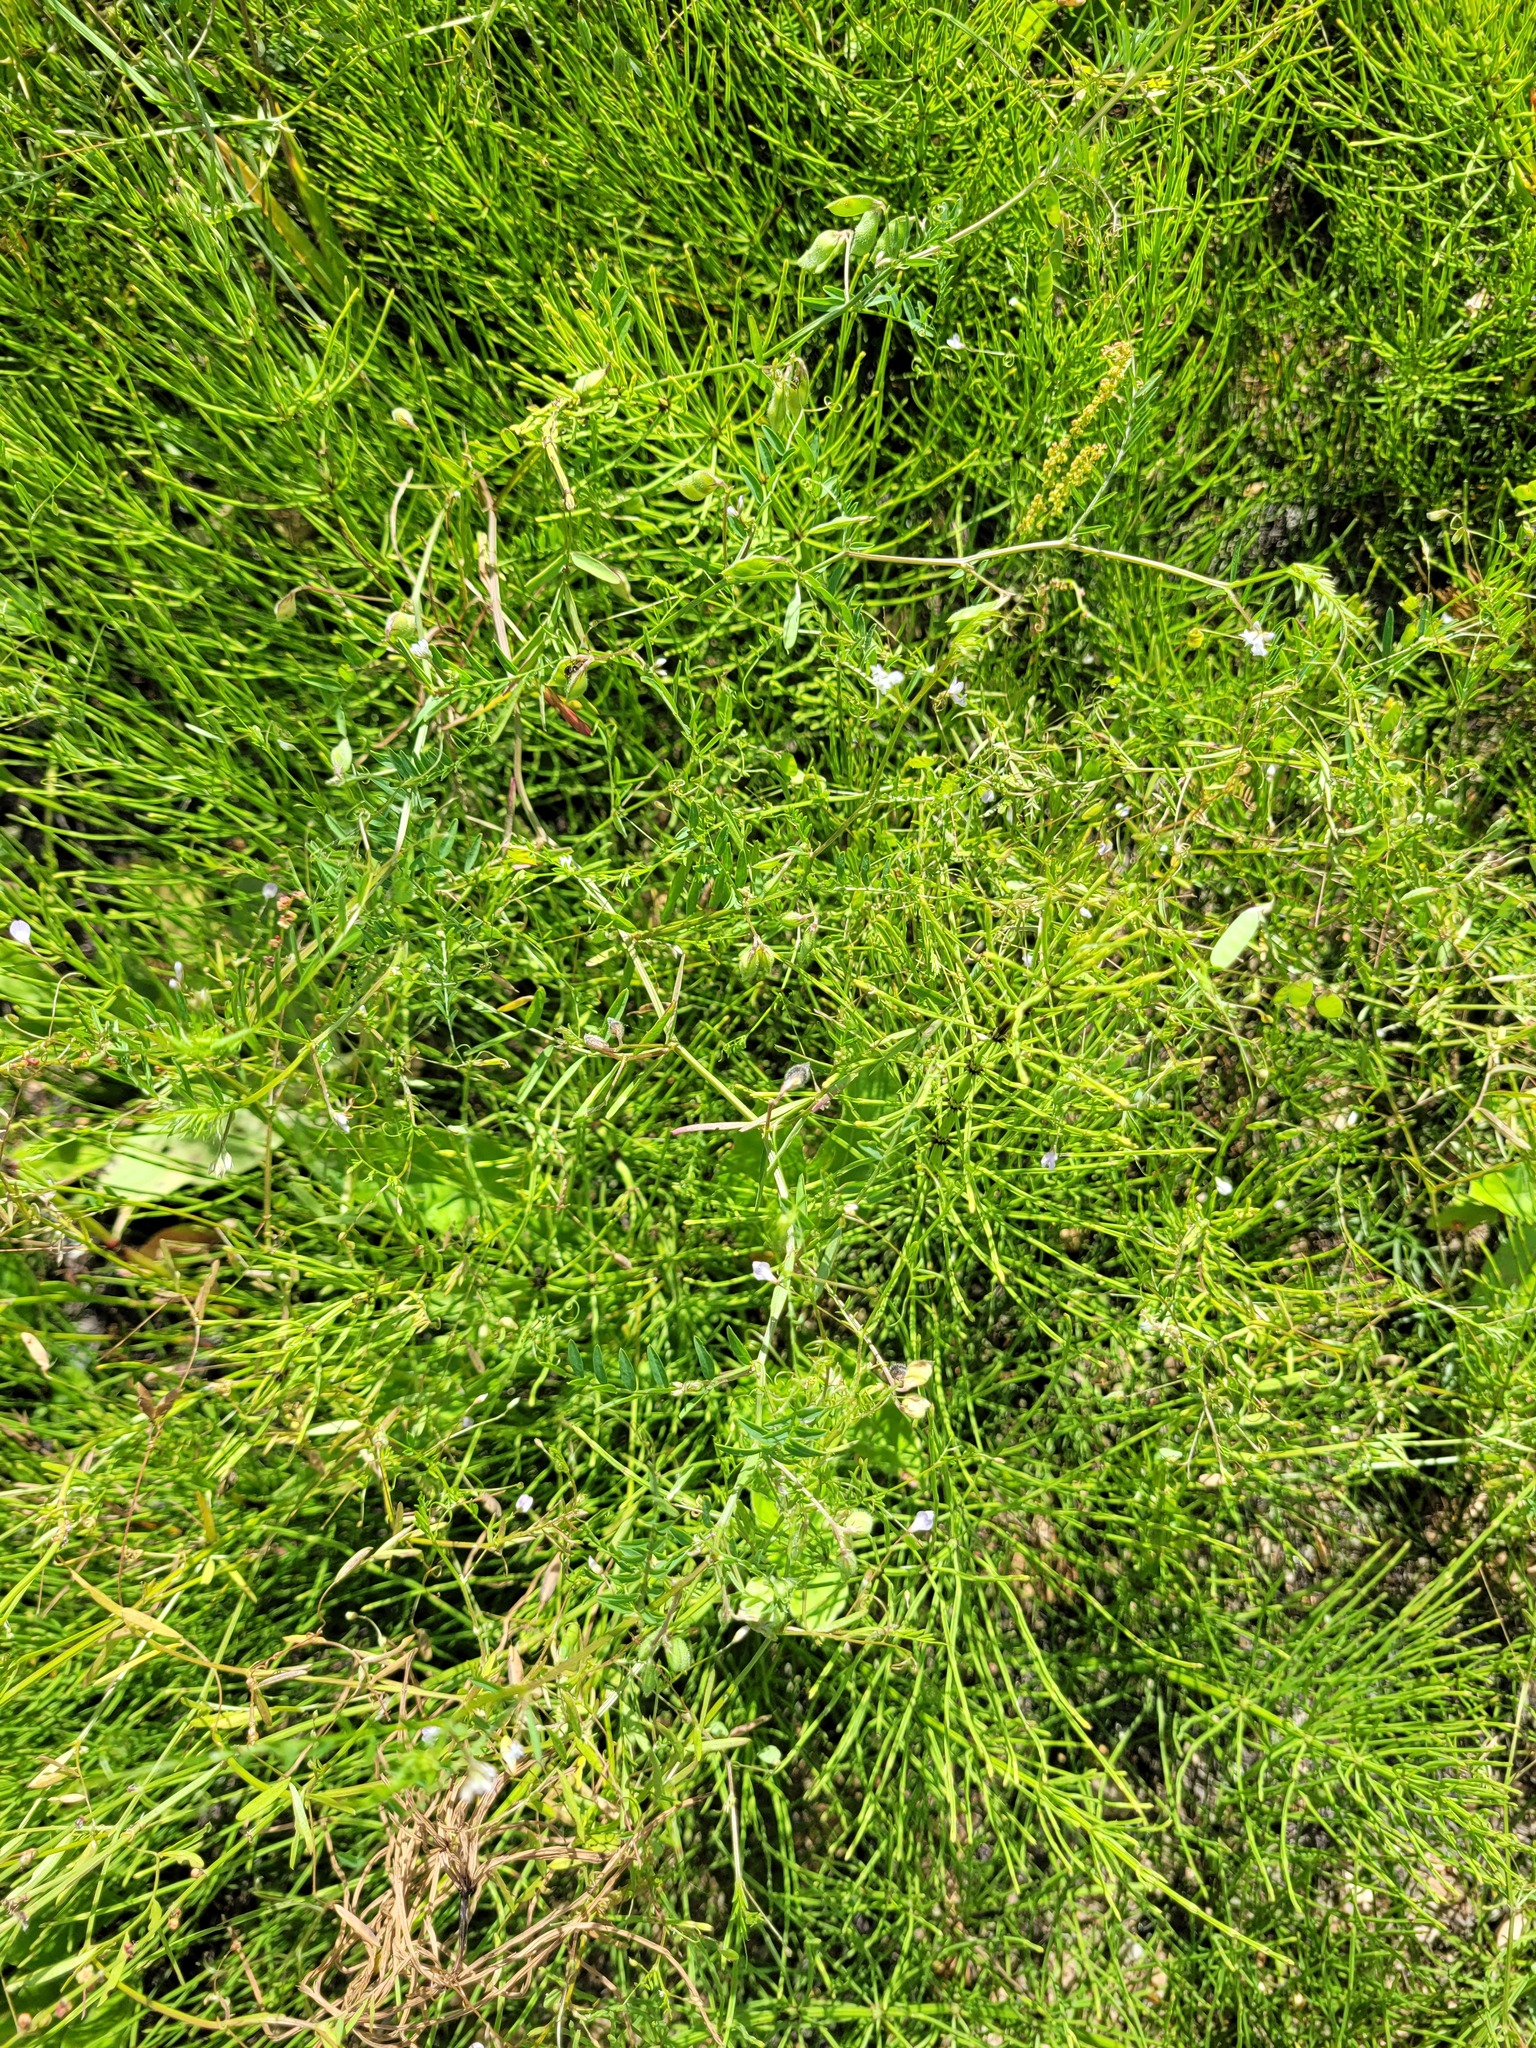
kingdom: Plantae
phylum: Tracheophyta
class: Magnoliopsida
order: Fabales
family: Fabaceae
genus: Vicia
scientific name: Vicia tetrasperma
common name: Smooth tare
